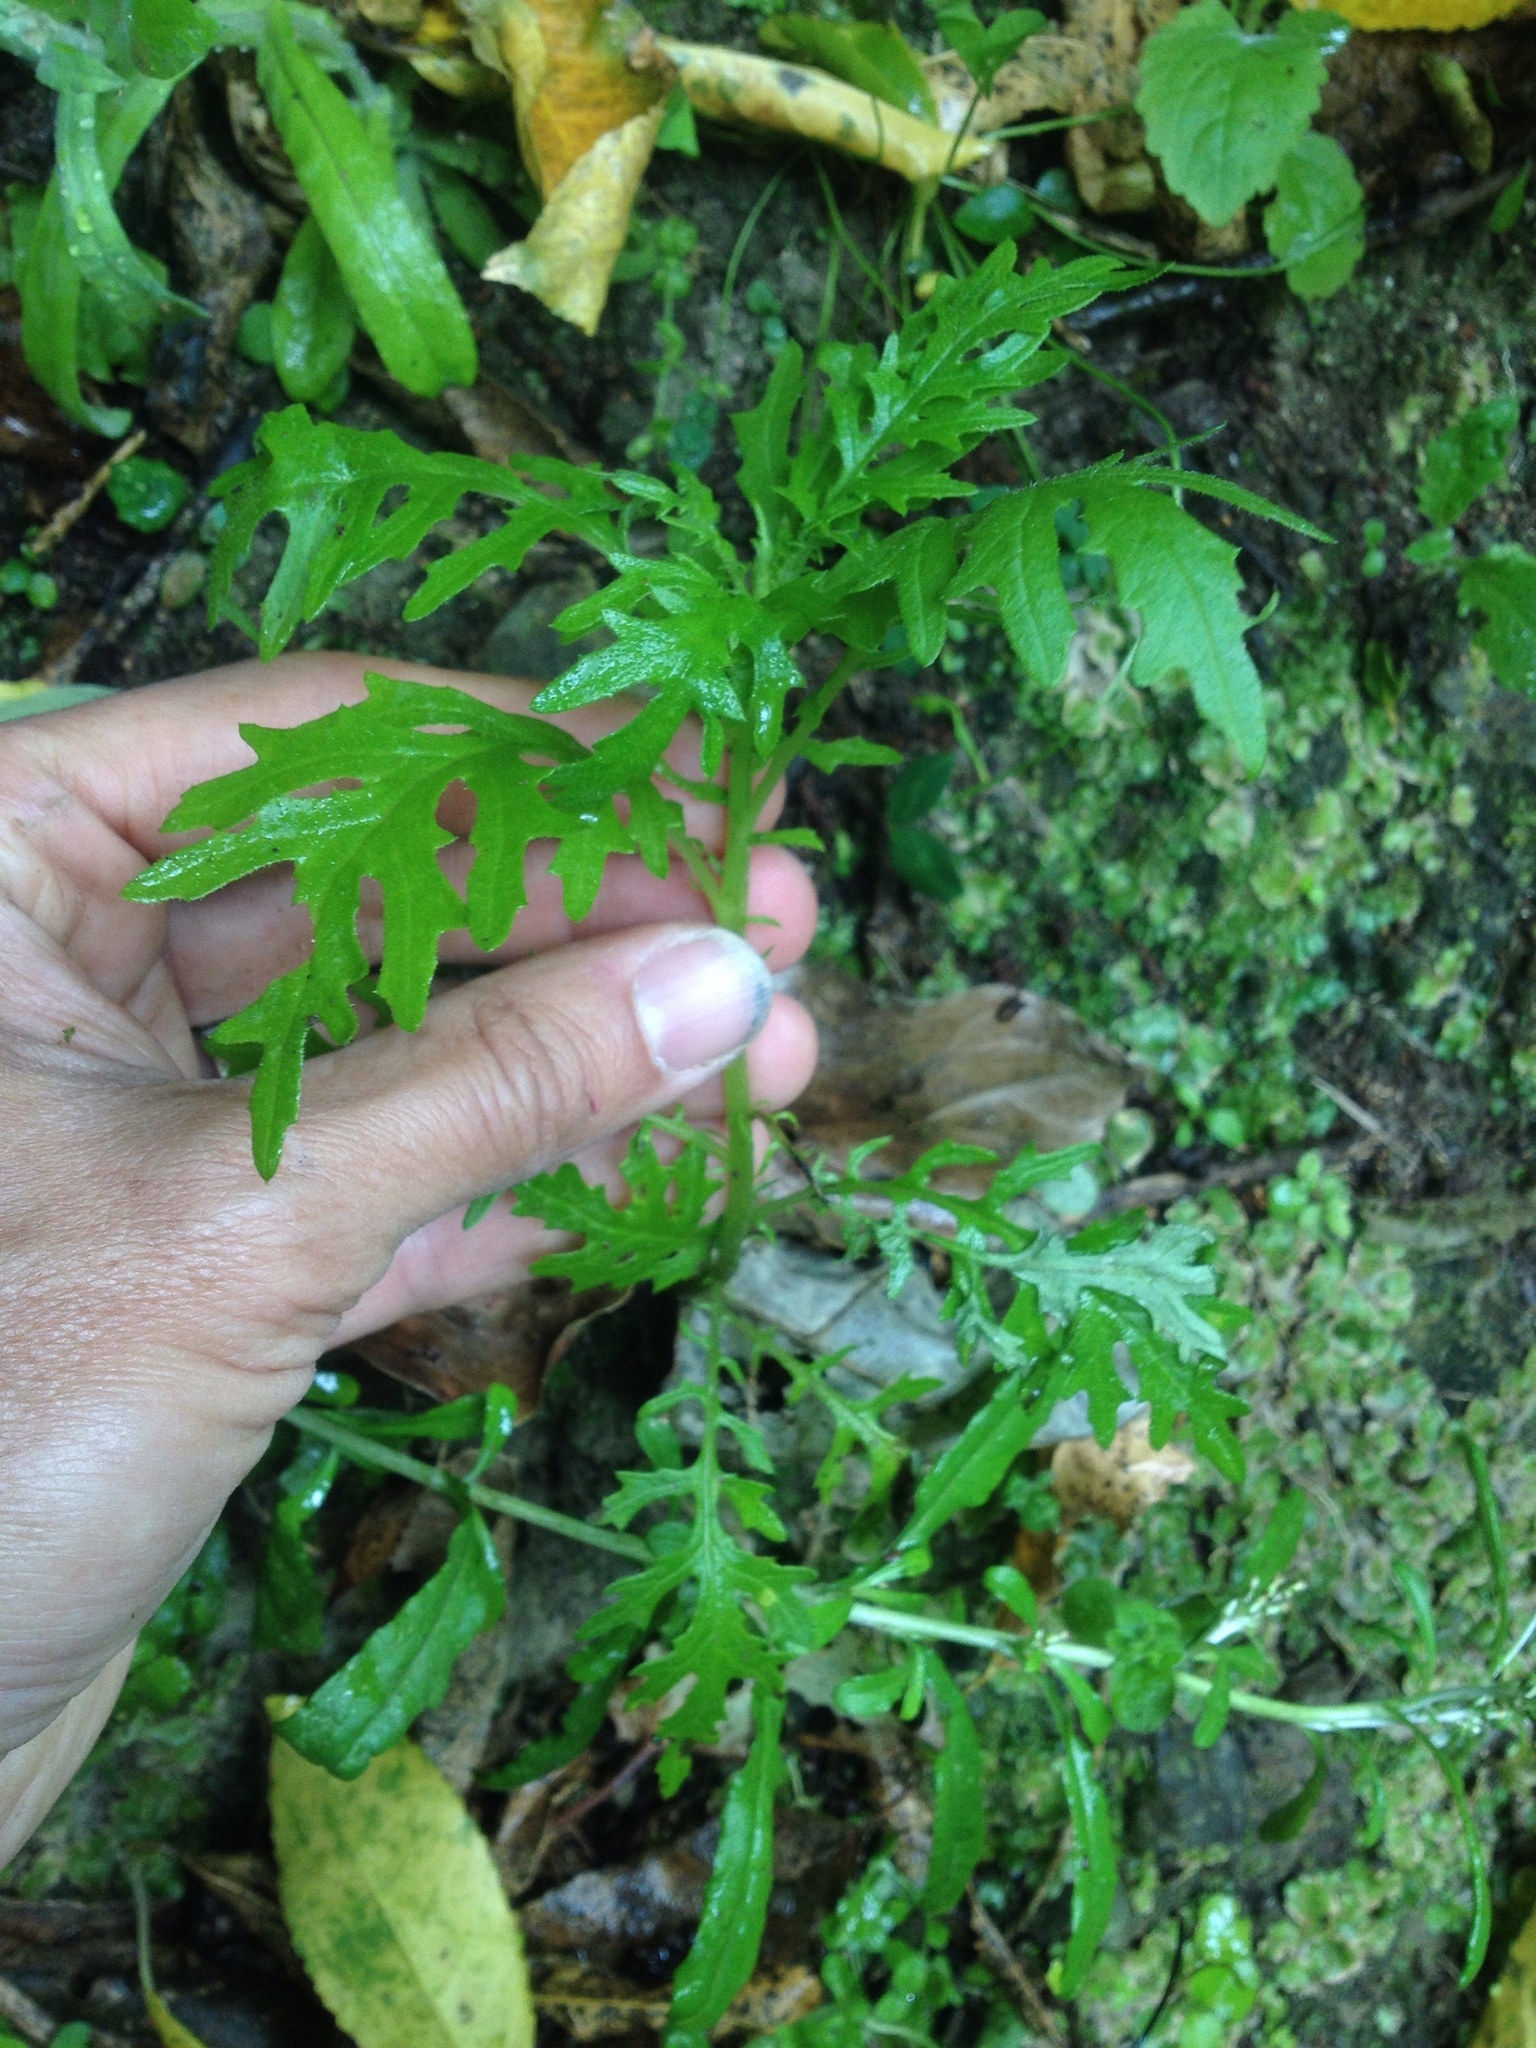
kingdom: Plantae
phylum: Tracheophyta
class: Magnoliopsida
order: Asterales
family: Asteraceae
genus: Senecio
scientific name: Senecio bipinnatisectus
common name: Australian fireweed
